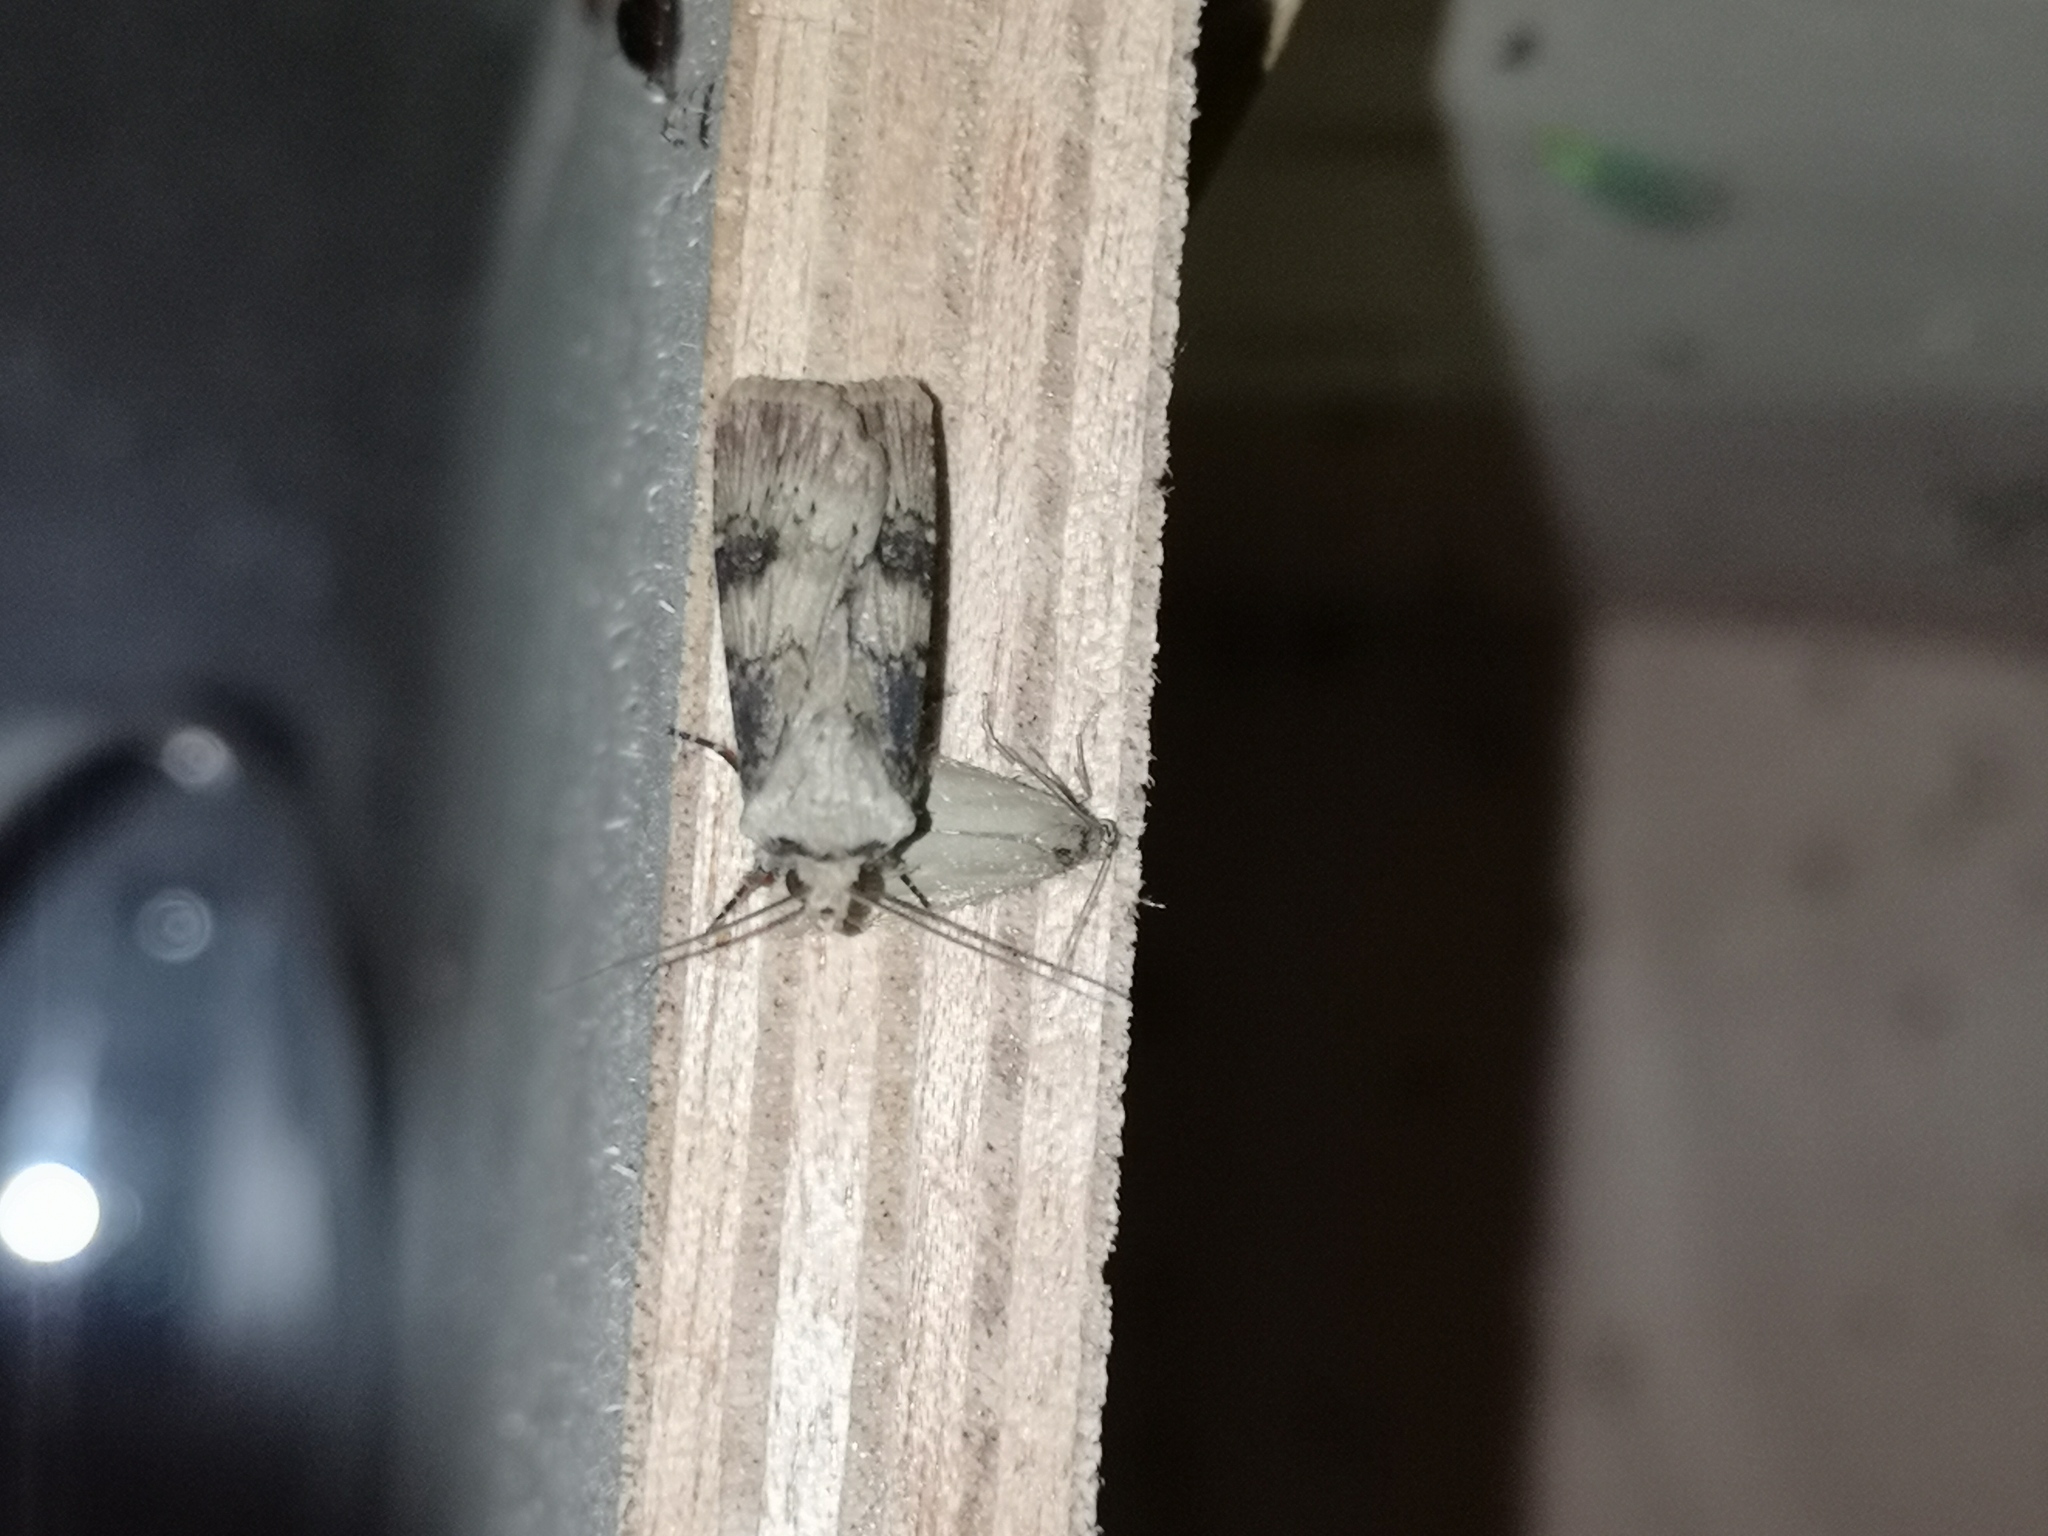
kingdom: Animalia
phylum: Arthropoda
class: Insecta
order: Lepidoptera
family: Noctuidae
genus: Agrotis
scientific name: Agrotis puta
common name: Shuttle-shaped dart
